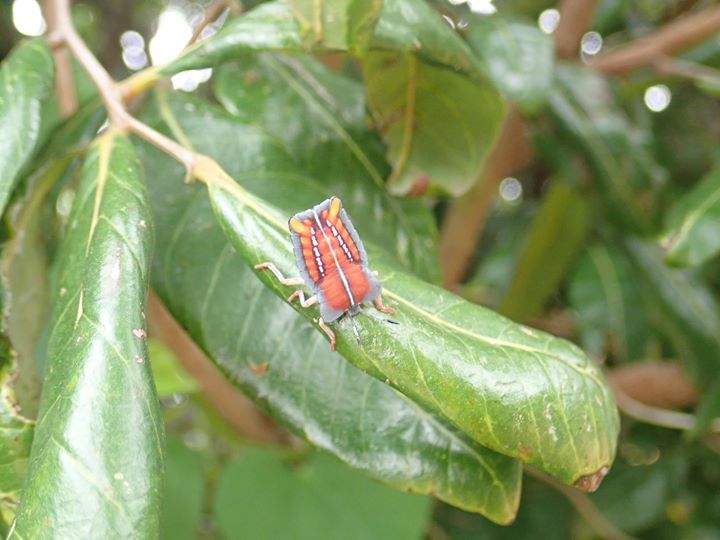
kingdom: Animalia
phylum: Arthropoda
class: Insecta
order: Hemiptera
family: Tessaratomidae
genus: Tessaratoma
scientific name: Tessaratoma papillosa
